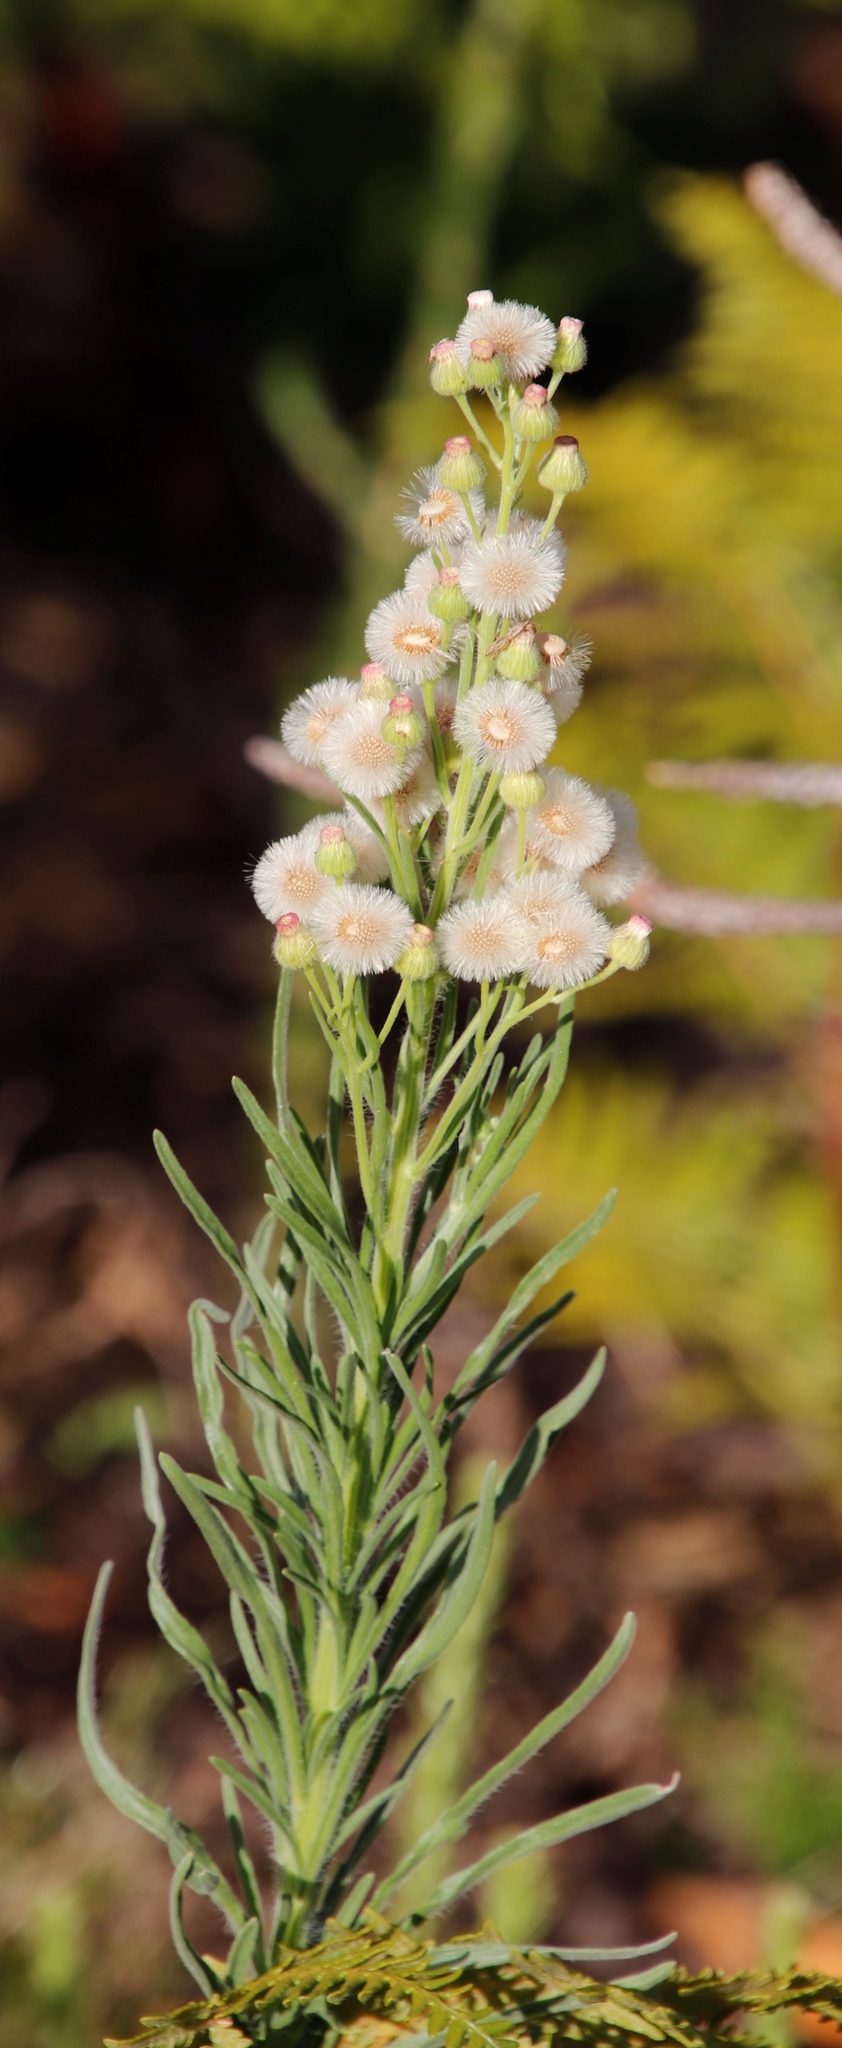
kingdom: Plantae
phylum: Tracheophyta
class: Magnoliopsida
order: Asterales
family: Asteraceae
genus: Erigeron
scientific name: Erigeron bonariensis
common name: Argentine fleabane
